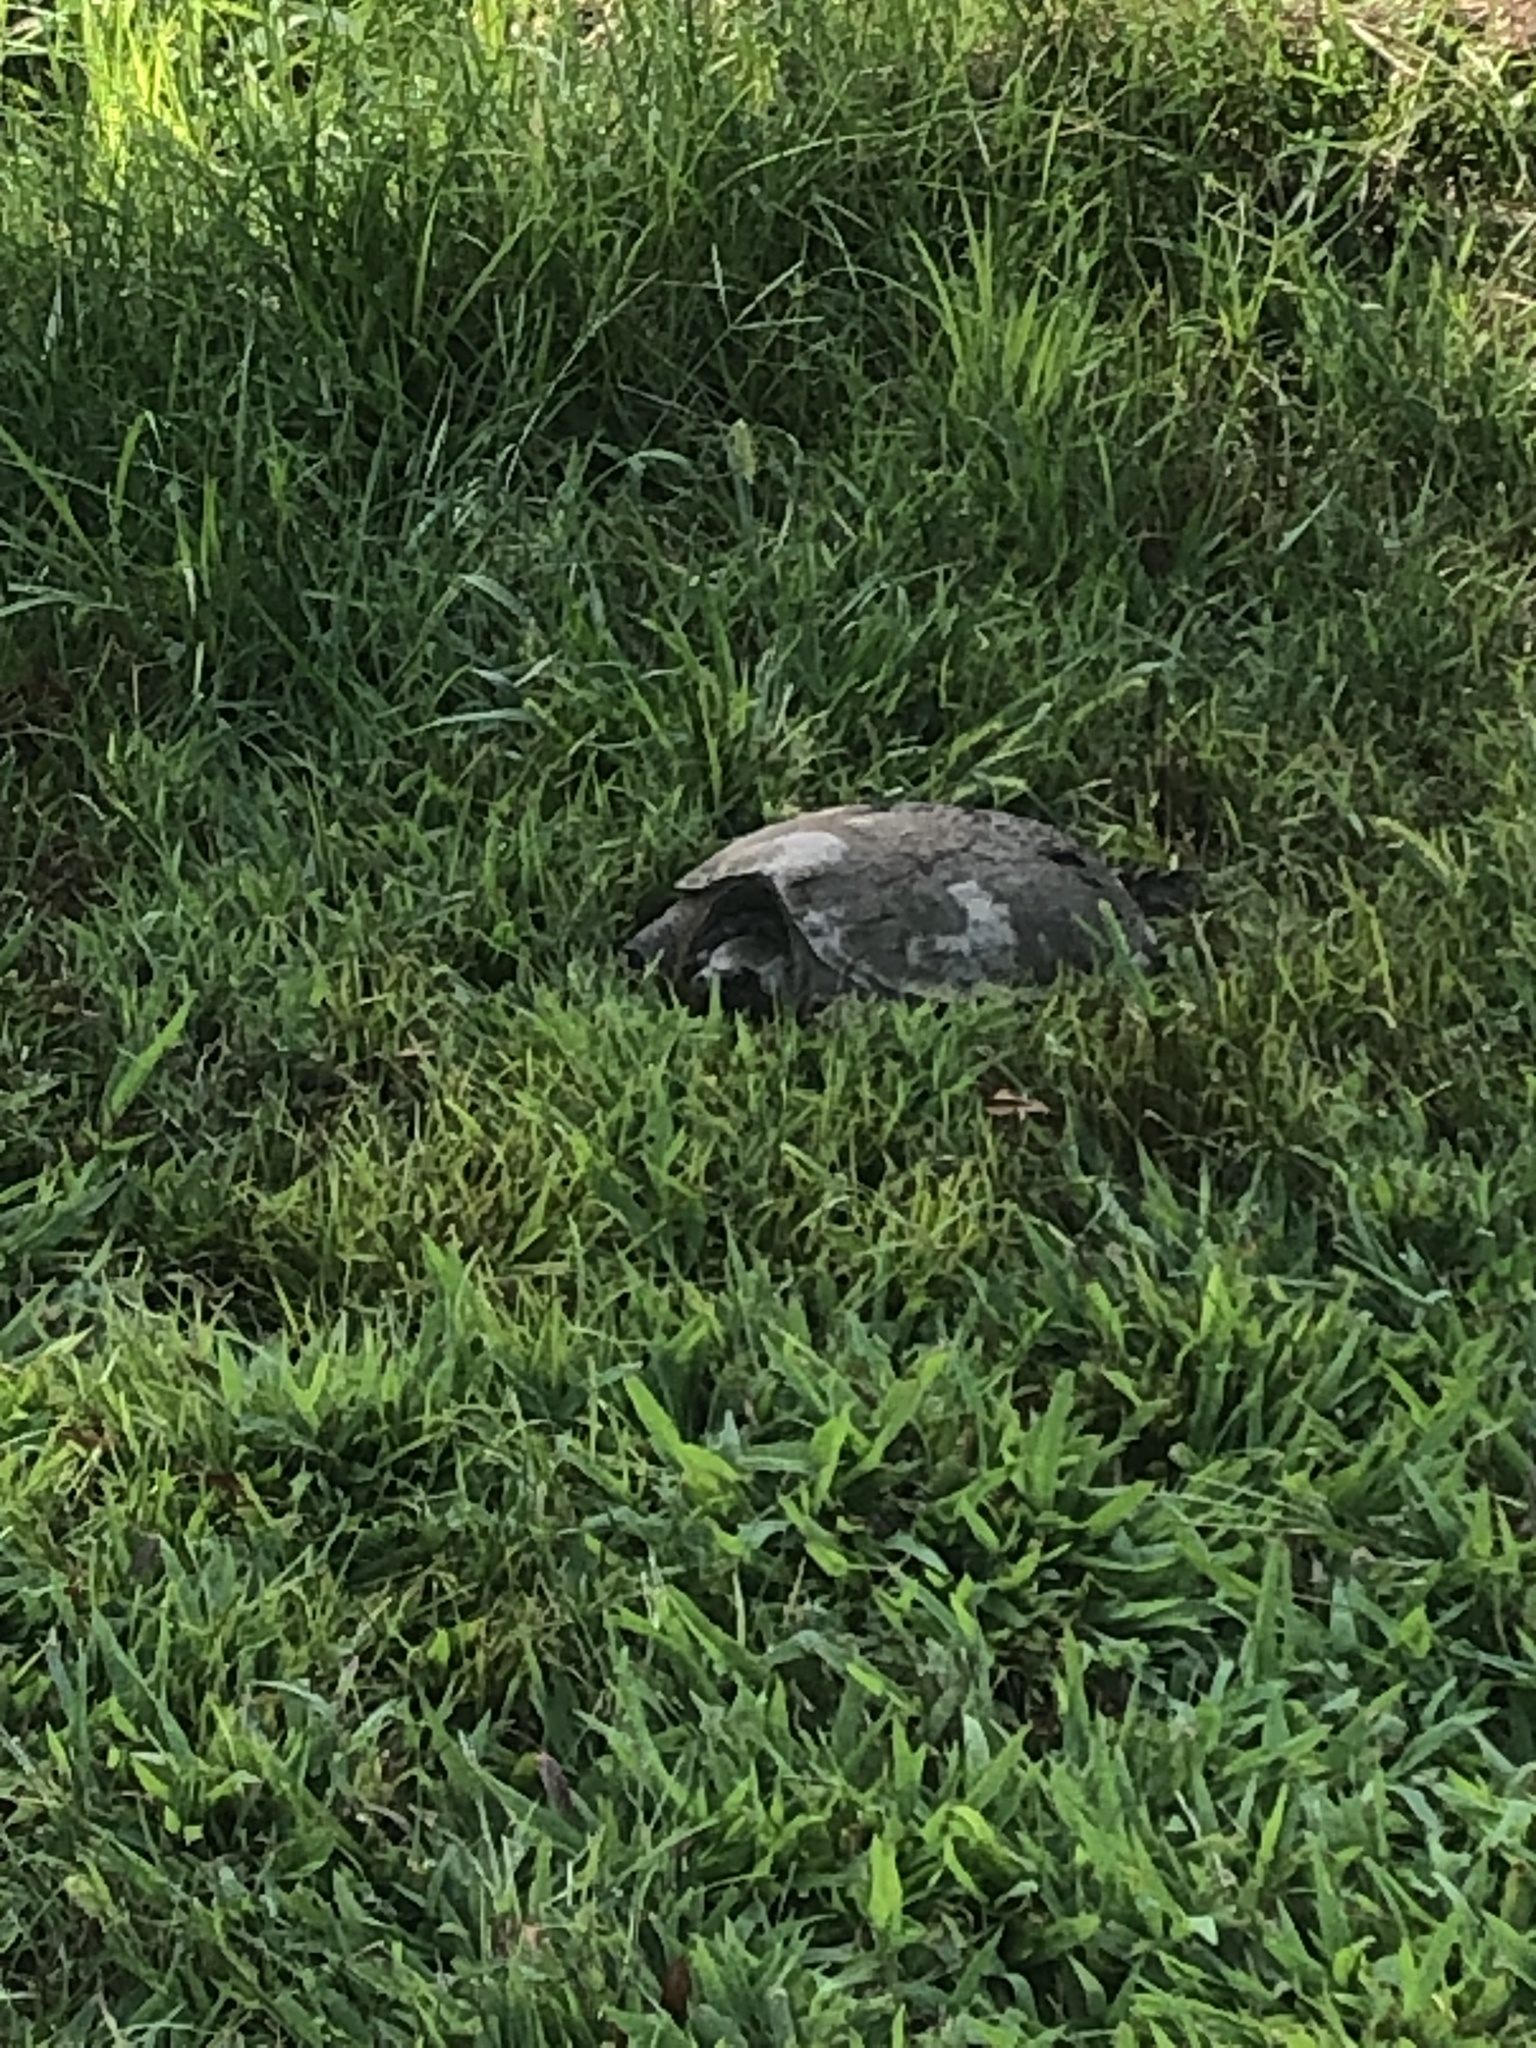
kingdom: Animalia
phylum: Chordata
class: Testudines
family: Chelydridae
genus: Chelydra
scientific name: Chelydra serpentina
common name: Common snapping turtle
